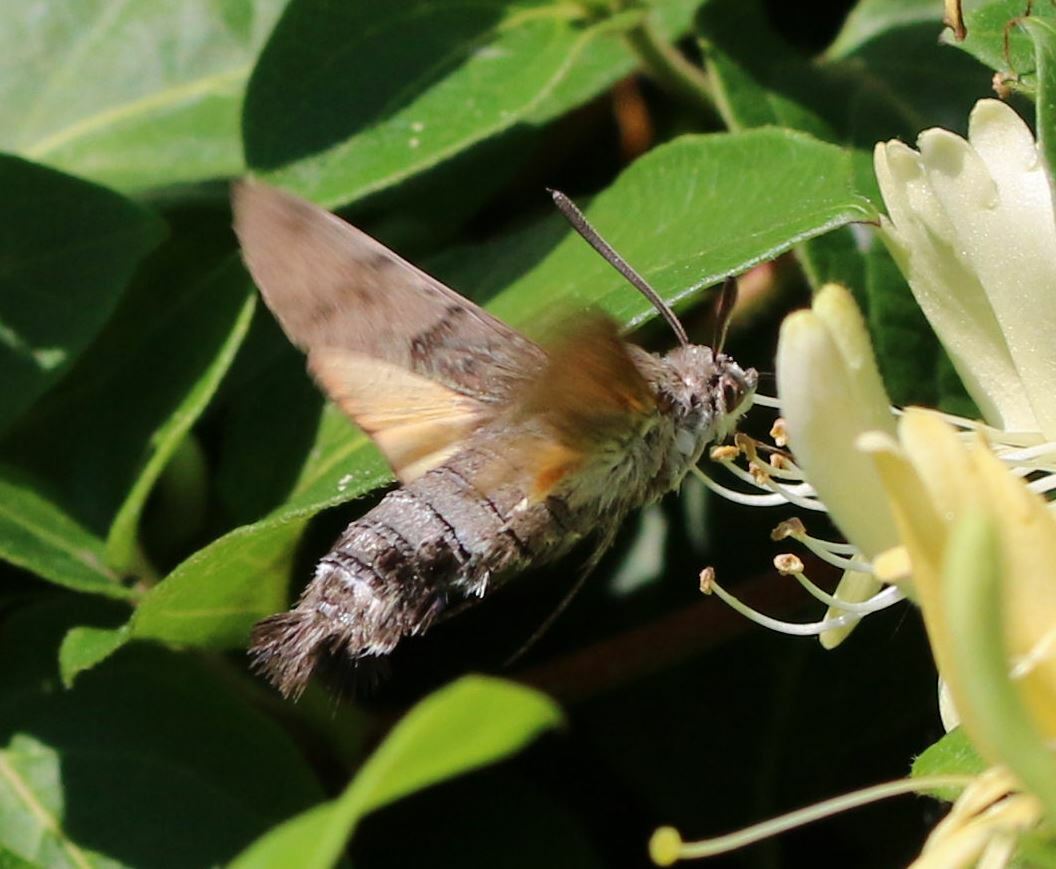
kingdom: Animalia
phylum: Arthropoda
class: Insecta
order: Lepidoptera
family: Sphingidae
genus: Macroglossum
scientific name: Macroglossum stellatarum
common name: Humming-bird hawk-moth
